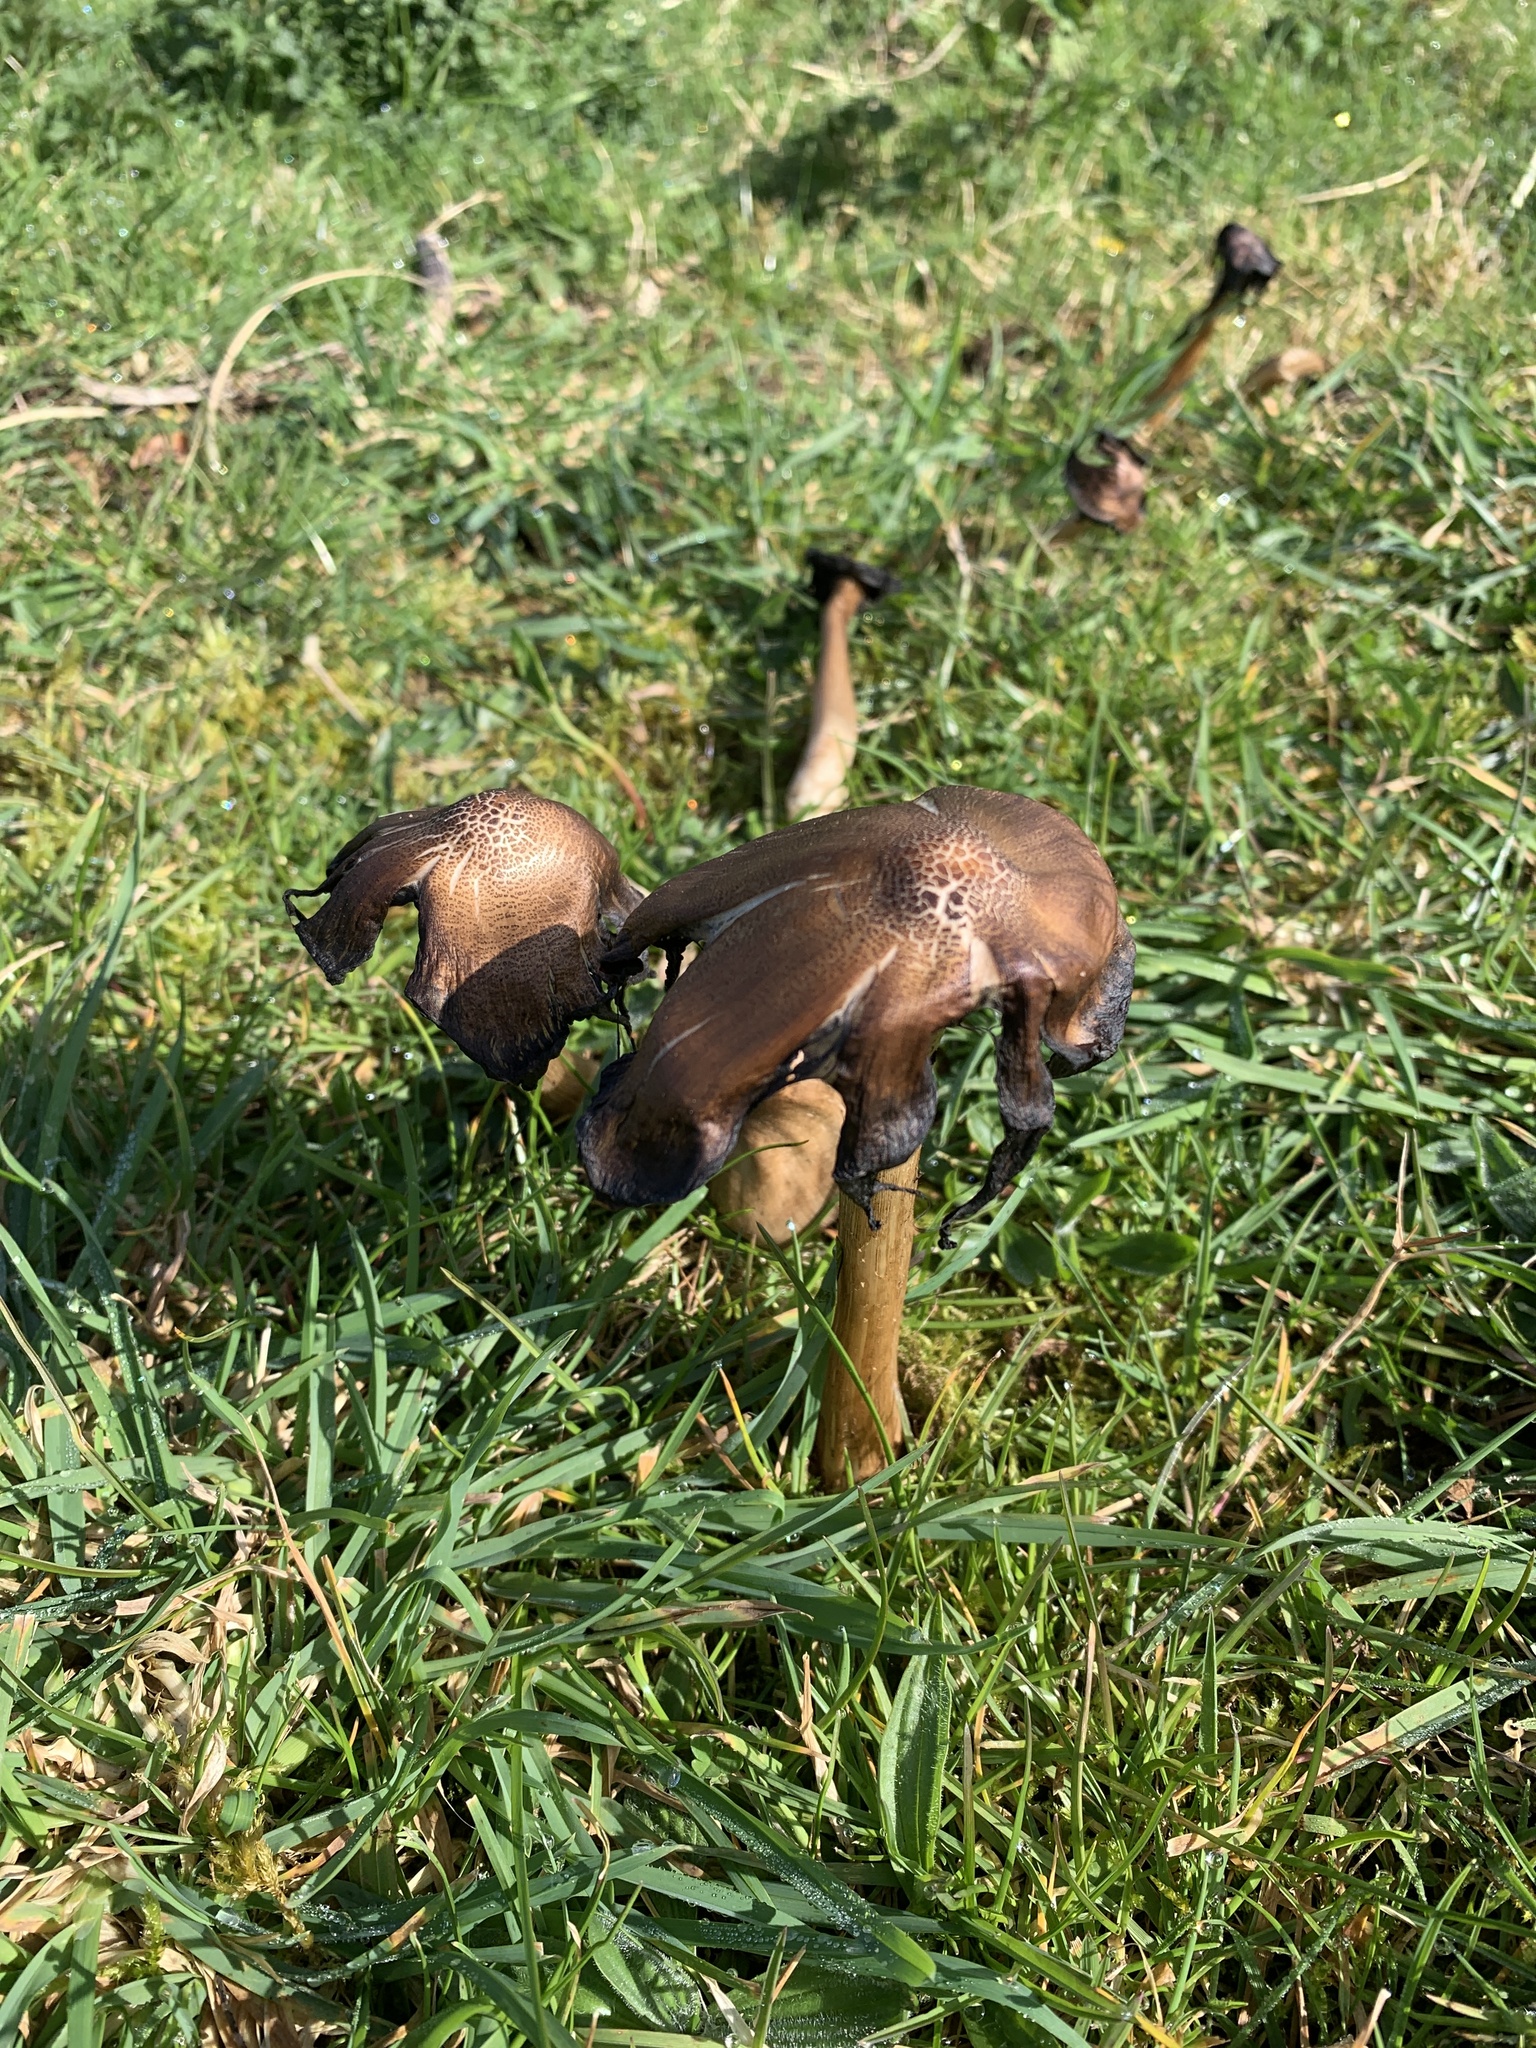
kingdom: Fungi
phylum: Basidiomycota
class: Agaricomycetes
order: Agaricales
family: Psathyrellaceae
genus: Coprinopsis
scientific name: Coprinopsis atramentaria
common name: Common ink-cap
